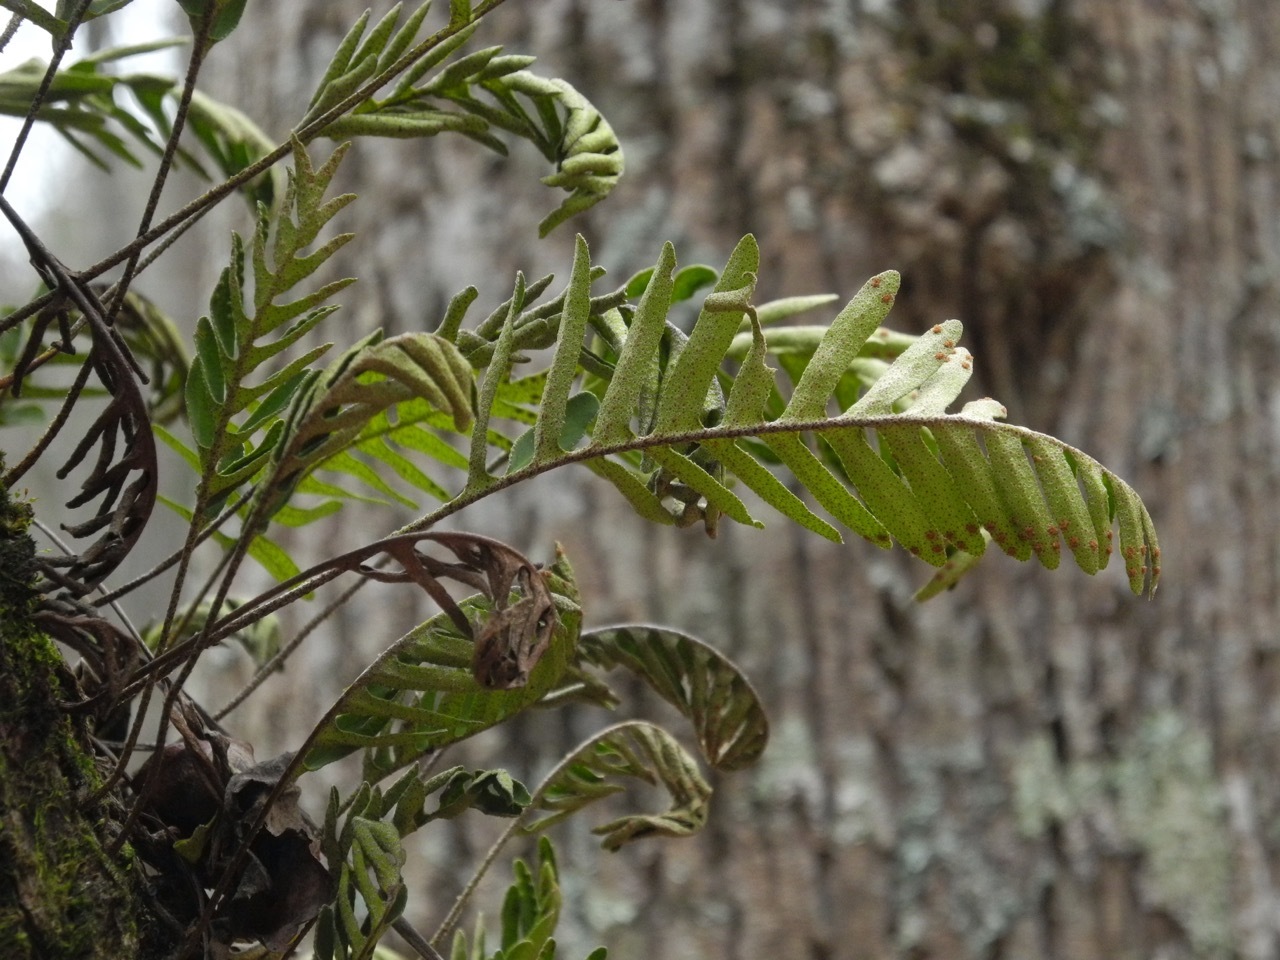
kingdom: Plantae
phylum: Tracheophyta
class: Polypodiopsida
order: Polypodiales
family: Polypodiaceae
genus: Pleopeltis
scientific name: Pleopeltis michauxiana
